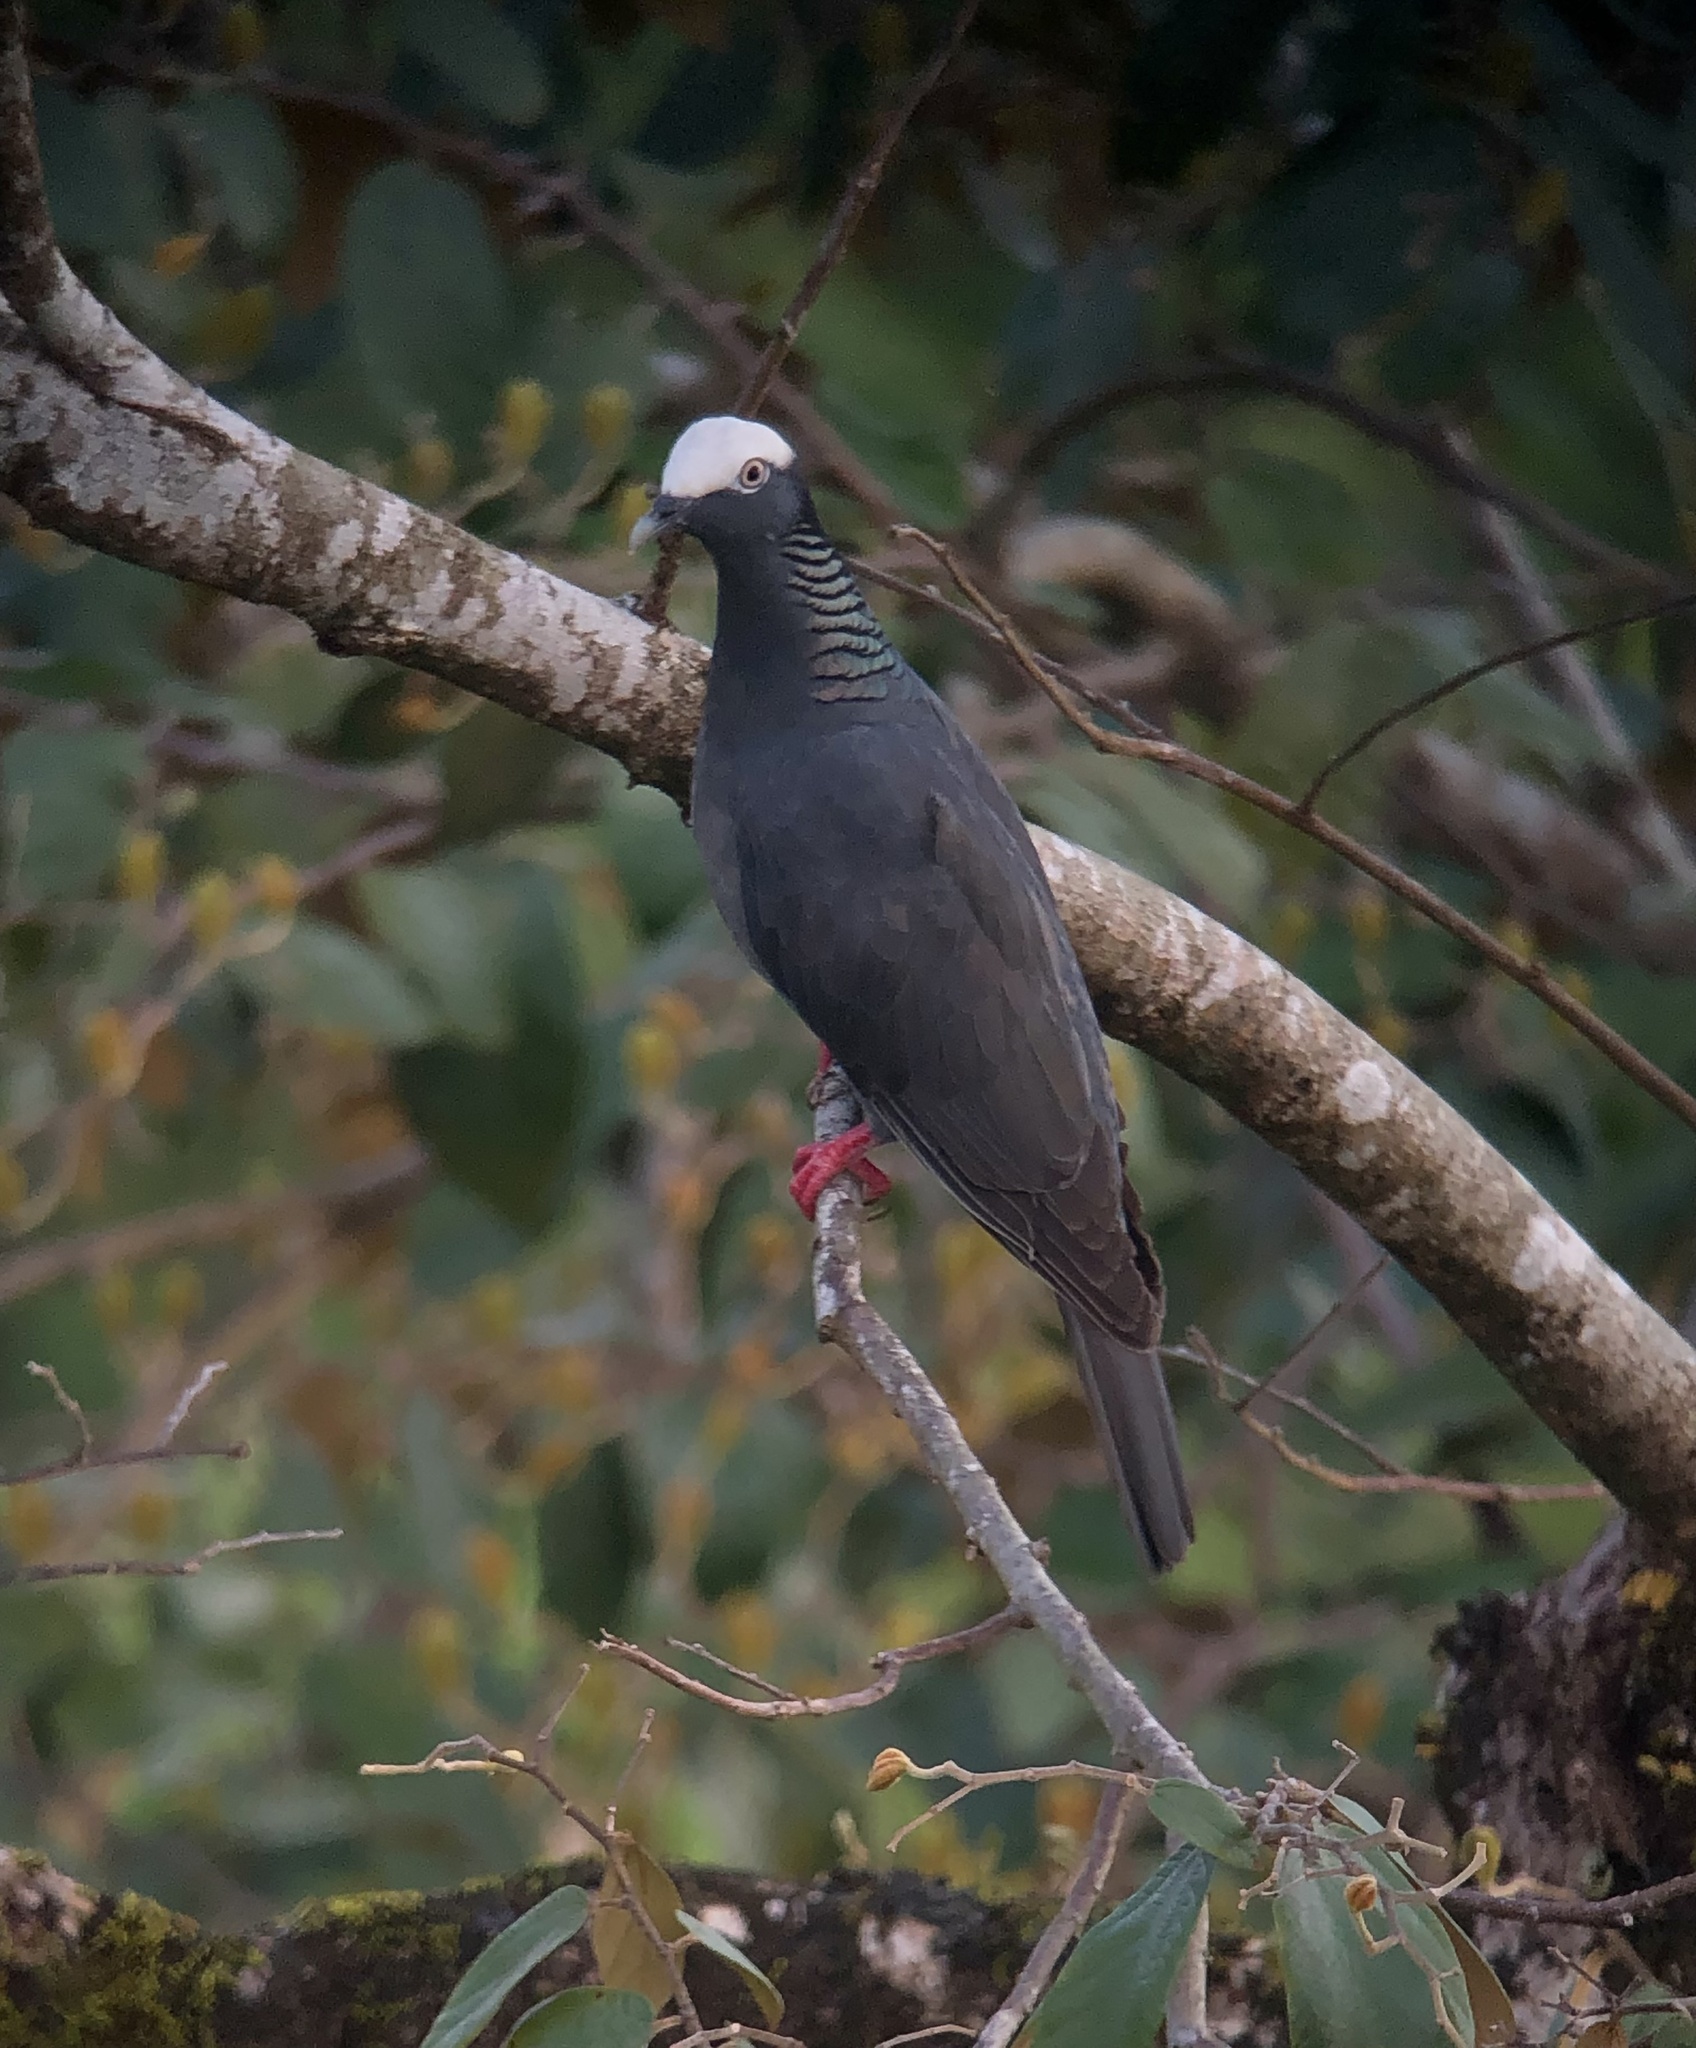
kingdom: Animalia
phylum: Chordata
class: Aves
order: Columbiformes
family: Columbidae
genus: Patagioenas
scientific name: Patagioenas leucocephala
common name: White-crowned pigeon
